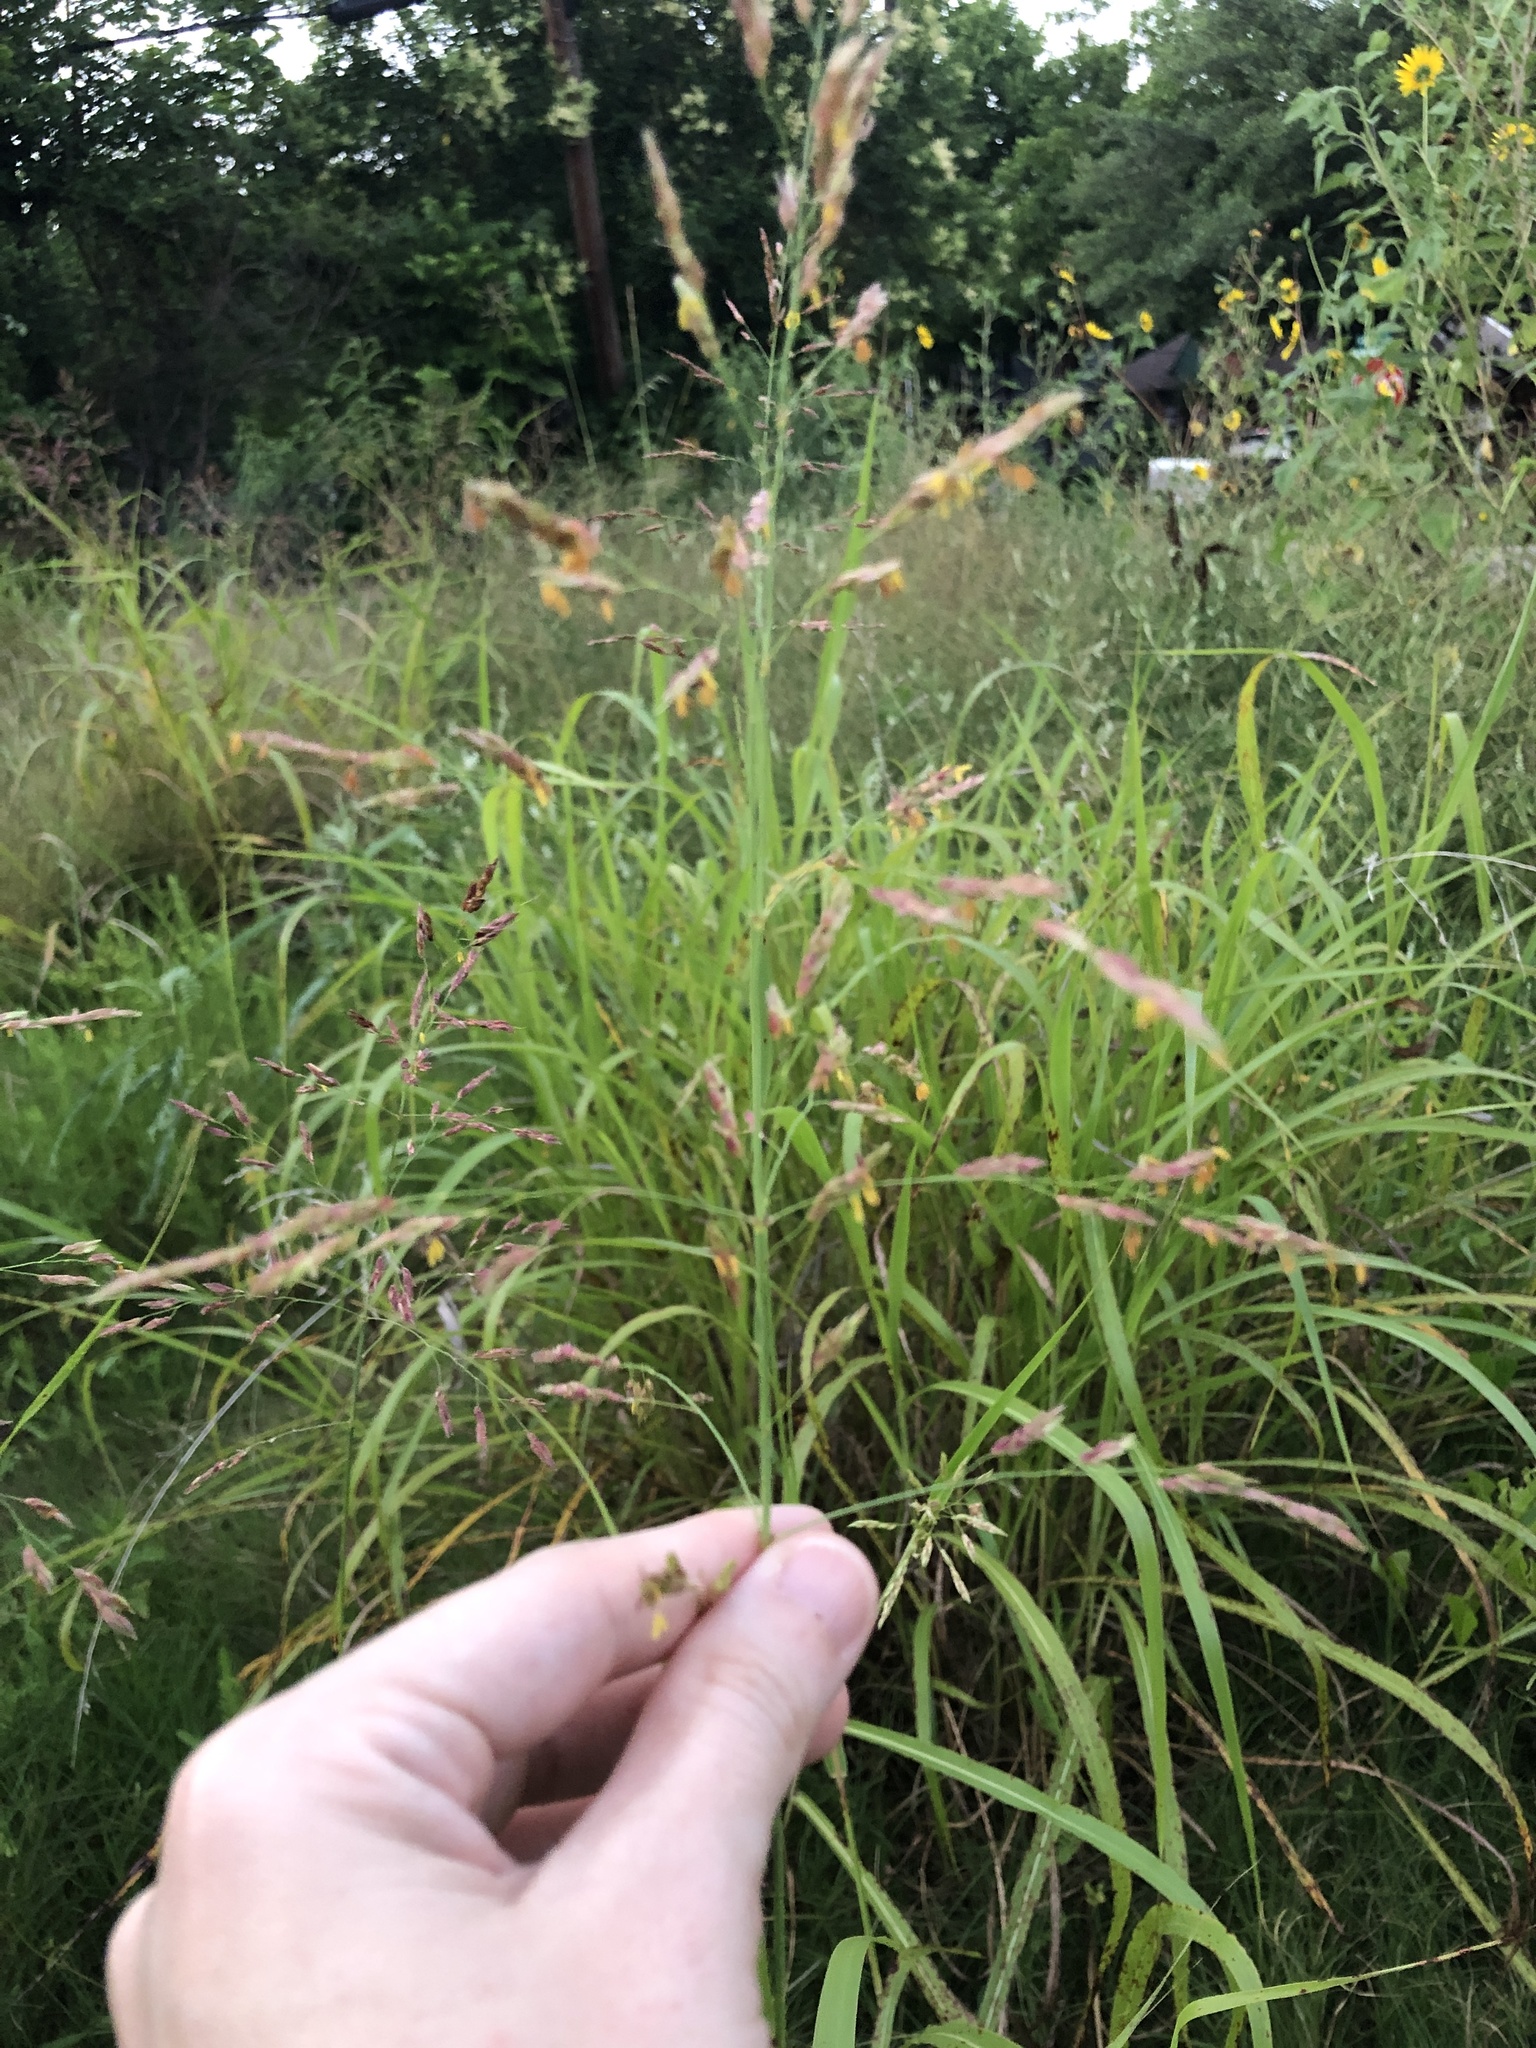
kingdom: Plantae
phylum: Tracheophyta
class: Liliopsida
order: Poales
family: Poaceae
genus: Sorghum
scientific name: Sorghum halepense
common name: Johnson-grass
